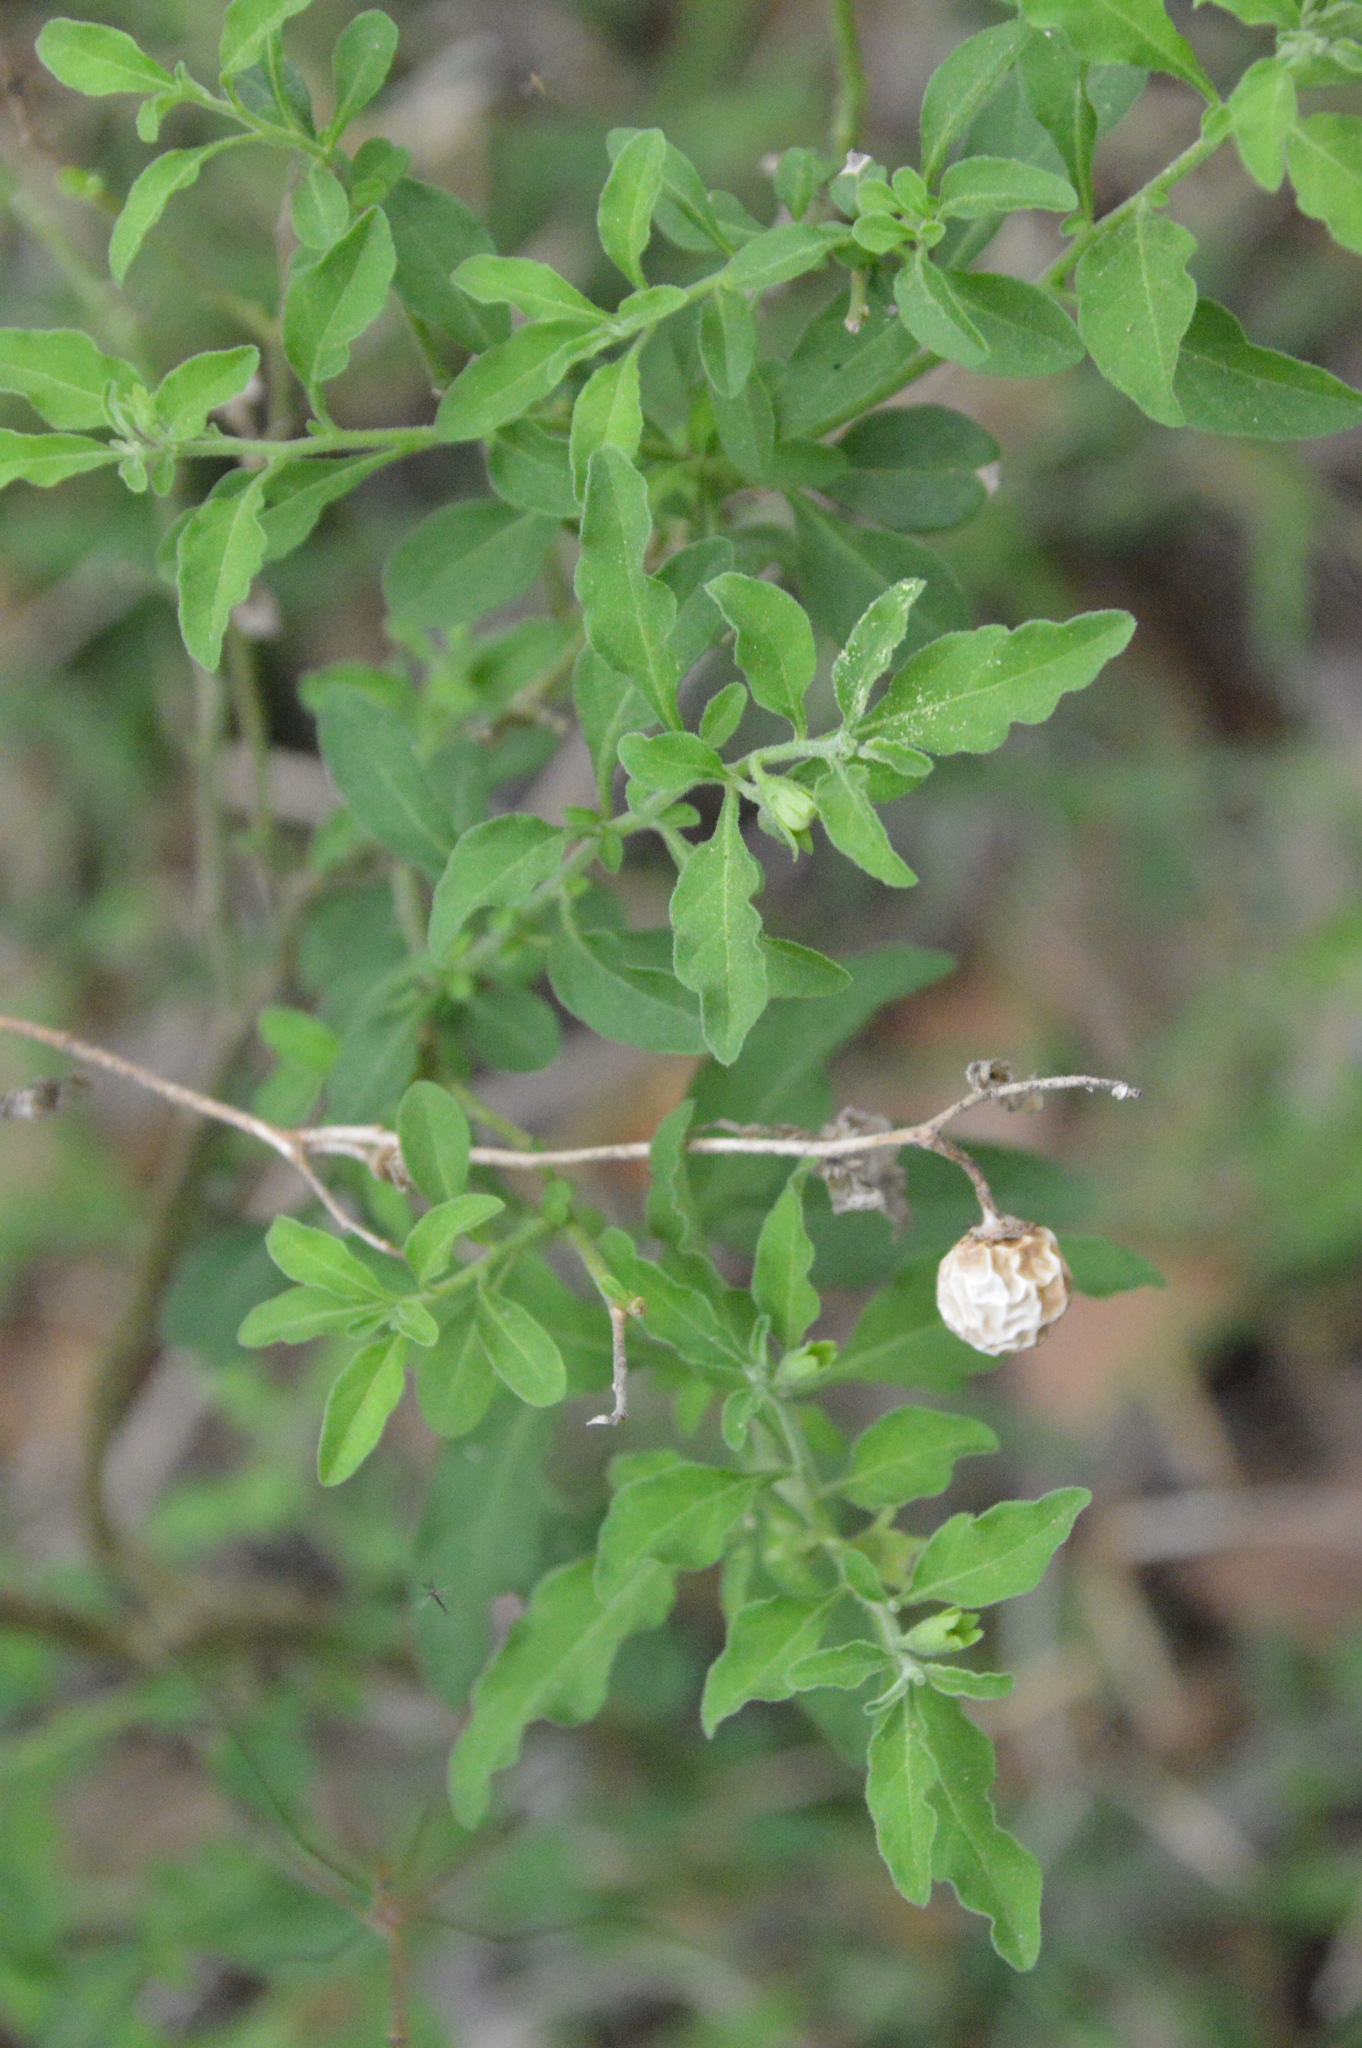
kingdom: Plantae
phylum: Tracheophyta
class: Magnoliopsida
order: Solanales
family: Solanaceae
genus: Solanum
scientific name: Solanum pseudocapsicum
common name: Jerusalem cherry
